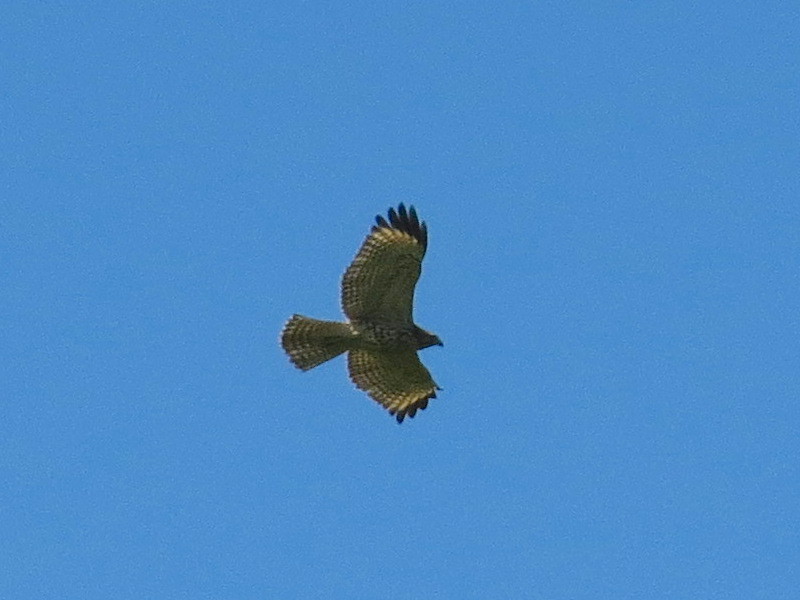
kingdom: Animalia
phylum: Chordata
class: Aves
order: Accipitriformes
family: Accipitridae
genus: Buteo
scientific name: Buteo lineatus
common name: Red-shouldered hawk
